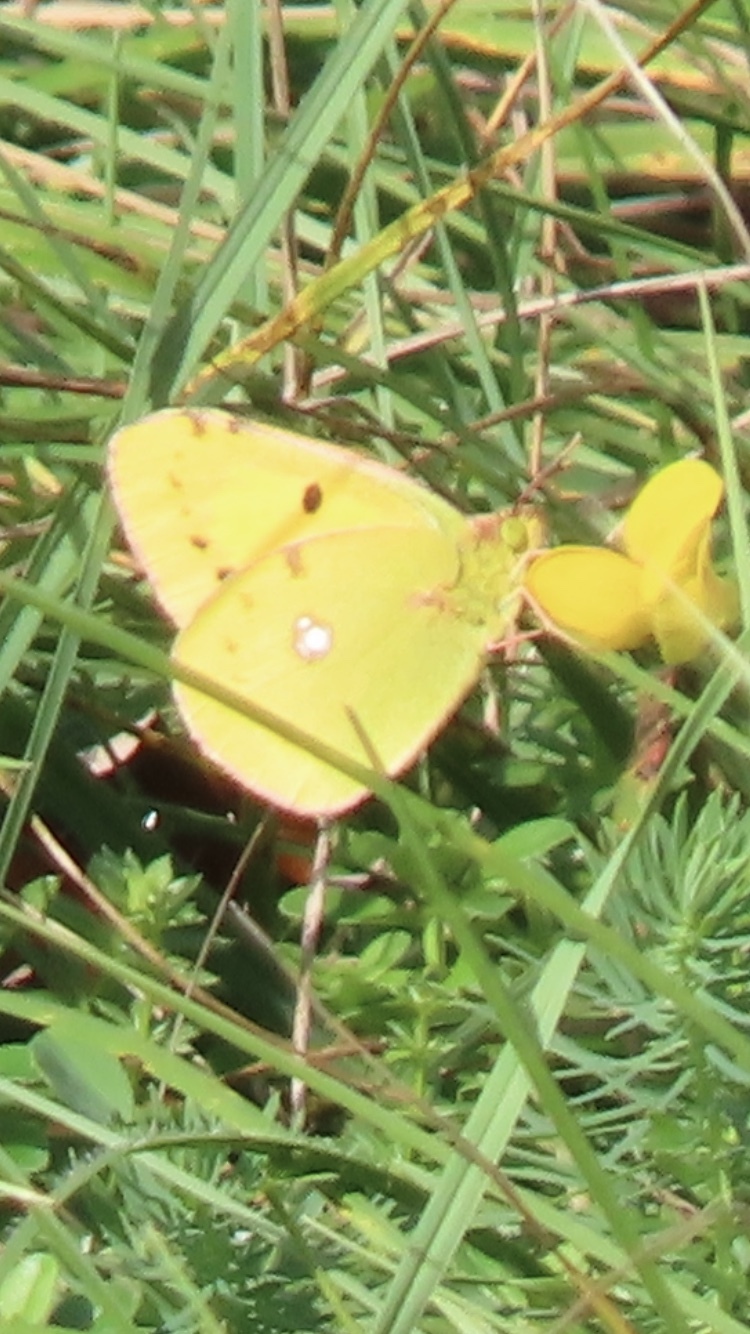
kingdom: Animalia
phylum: Arthropoda
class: Insecta
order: Lepidoptera
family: Pieridae
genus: Colias
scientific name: Colias croceus
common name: Clouded yellow
